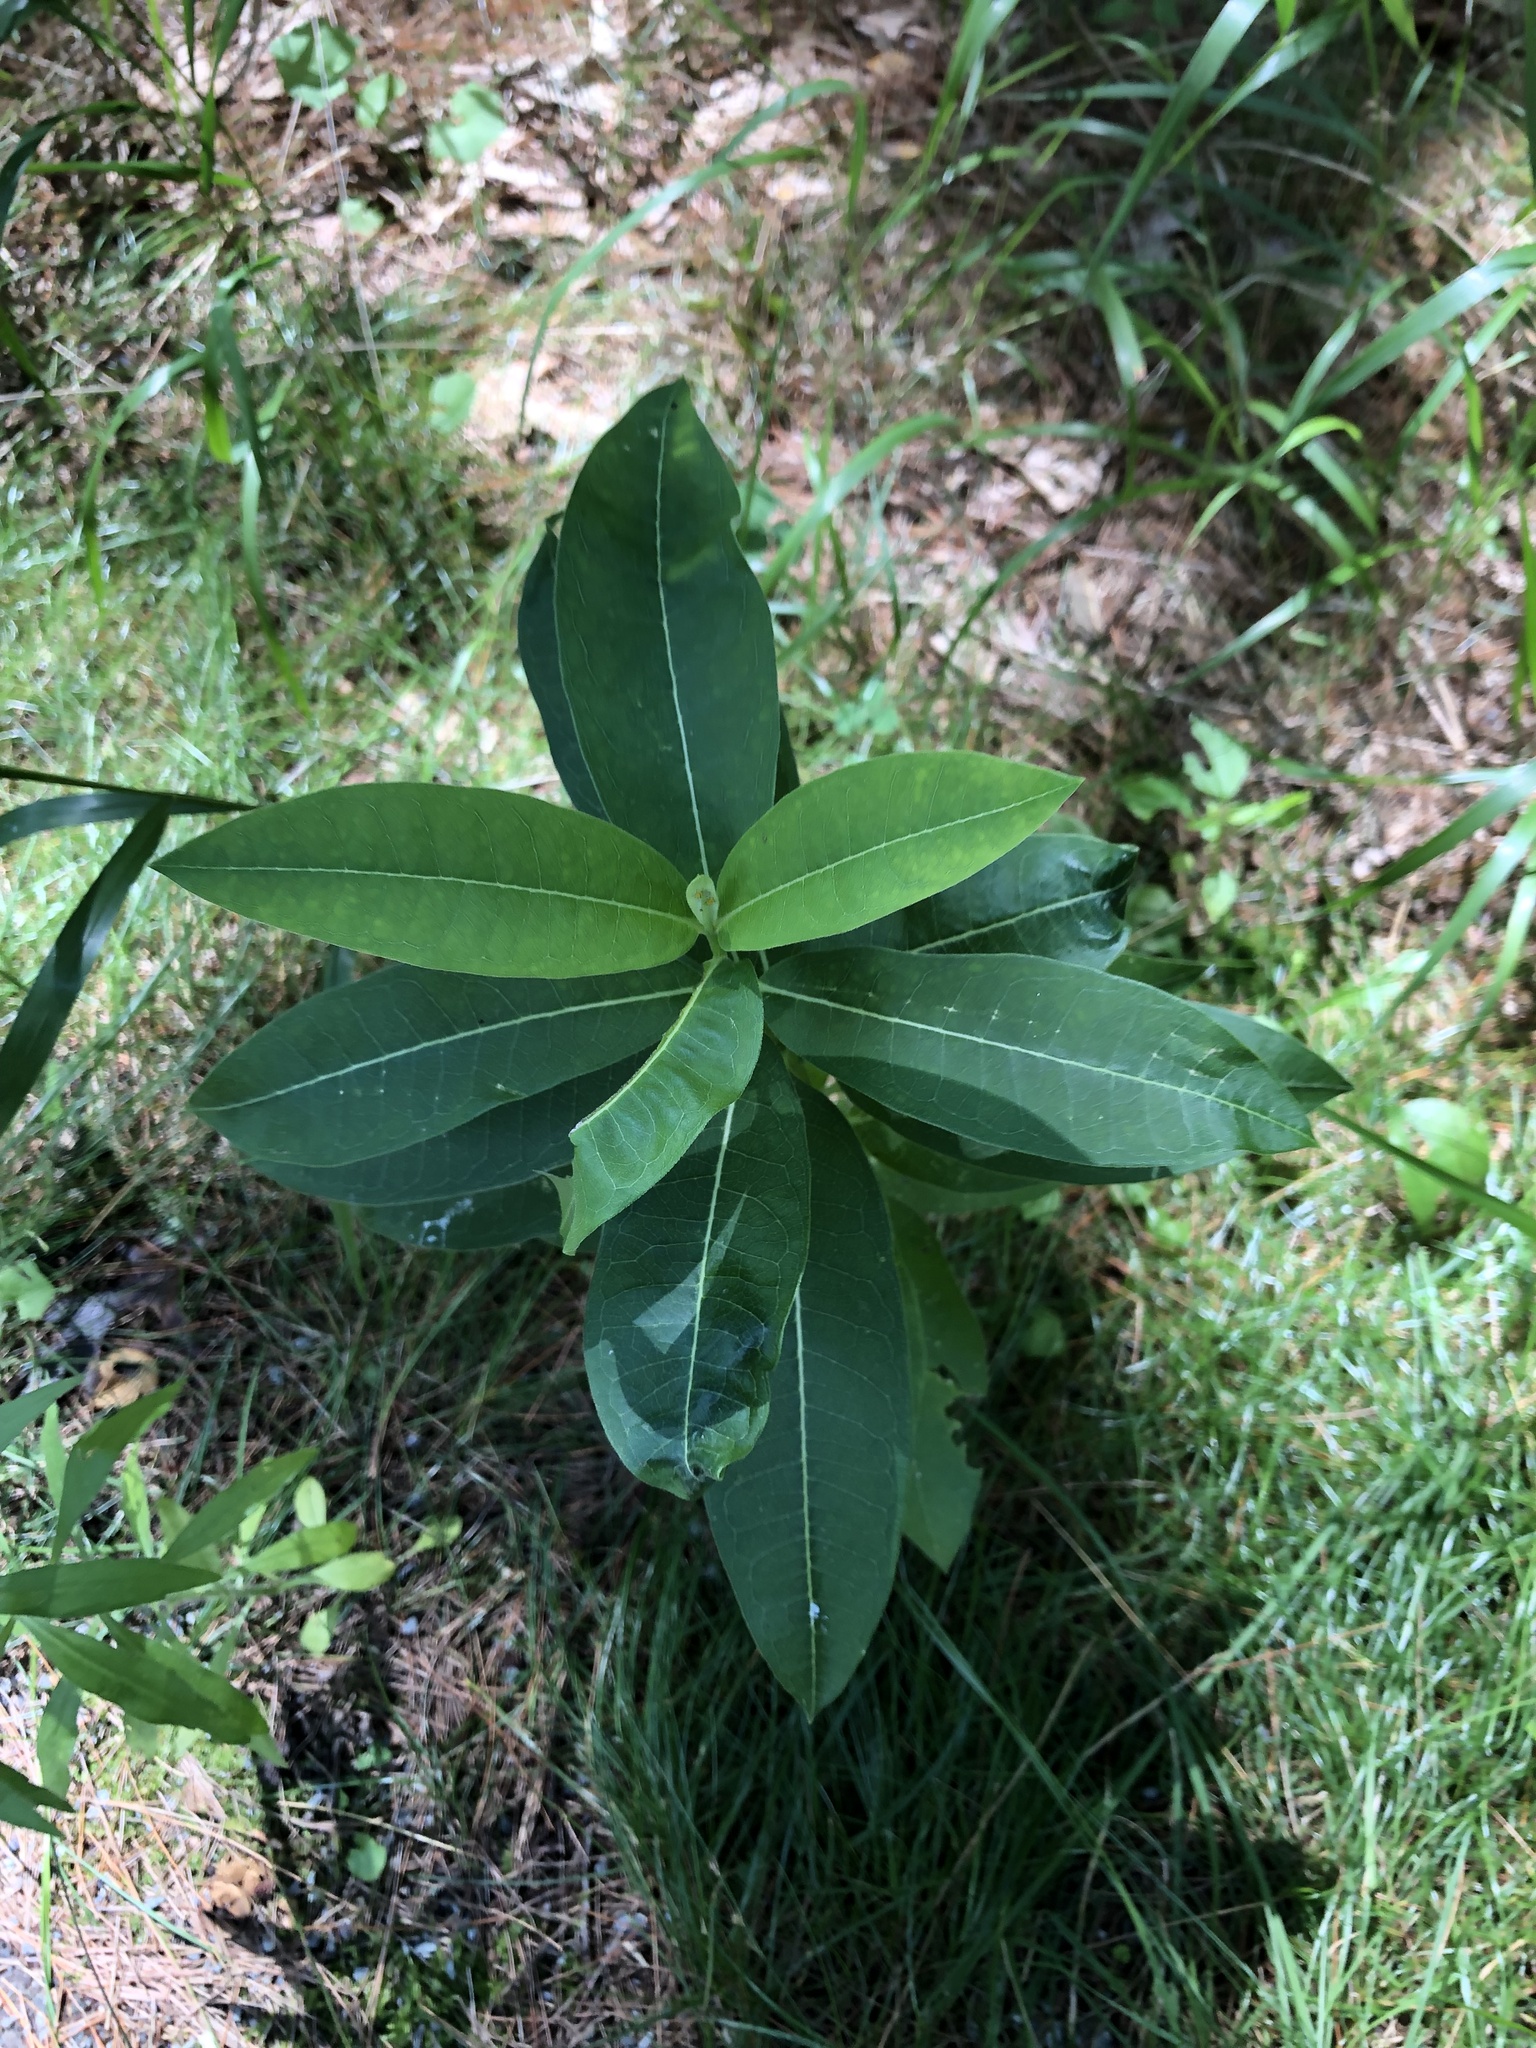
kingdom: Plantae
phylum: Tracheophyta
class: Magnoliopsida
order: Gentianales
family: Apocynaceae
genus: Asclepias
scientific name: Asclepias syriaca
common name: Common milkweed
